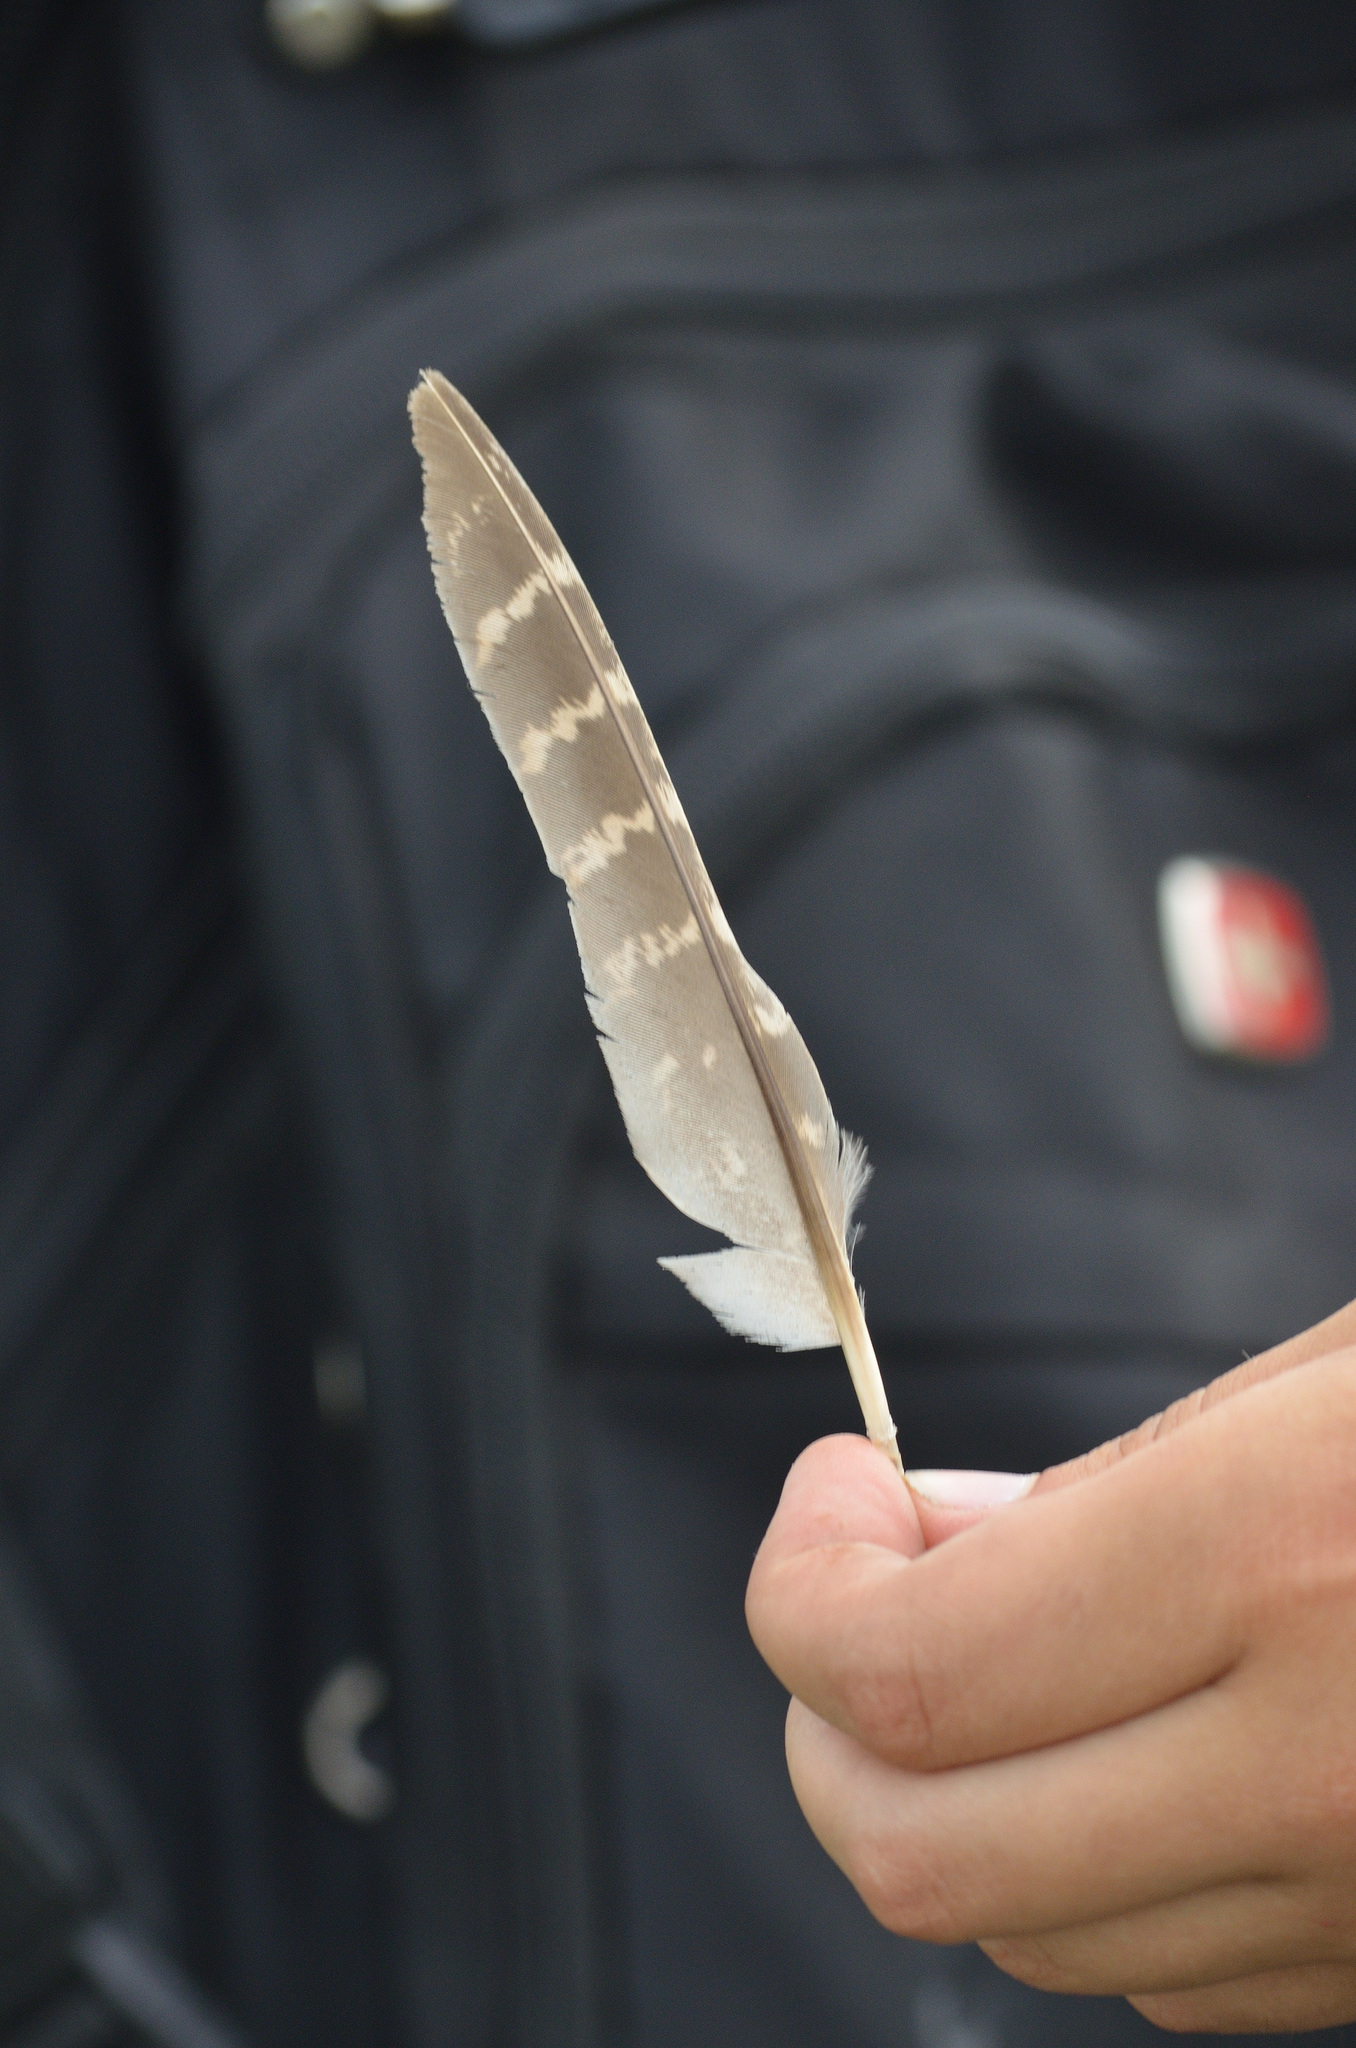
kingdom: Animalia
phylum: Chordata
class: Aves
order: Galliformes
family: Phasianidae
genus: Perdix
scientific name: Perdix perdix
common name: Grey partridge
